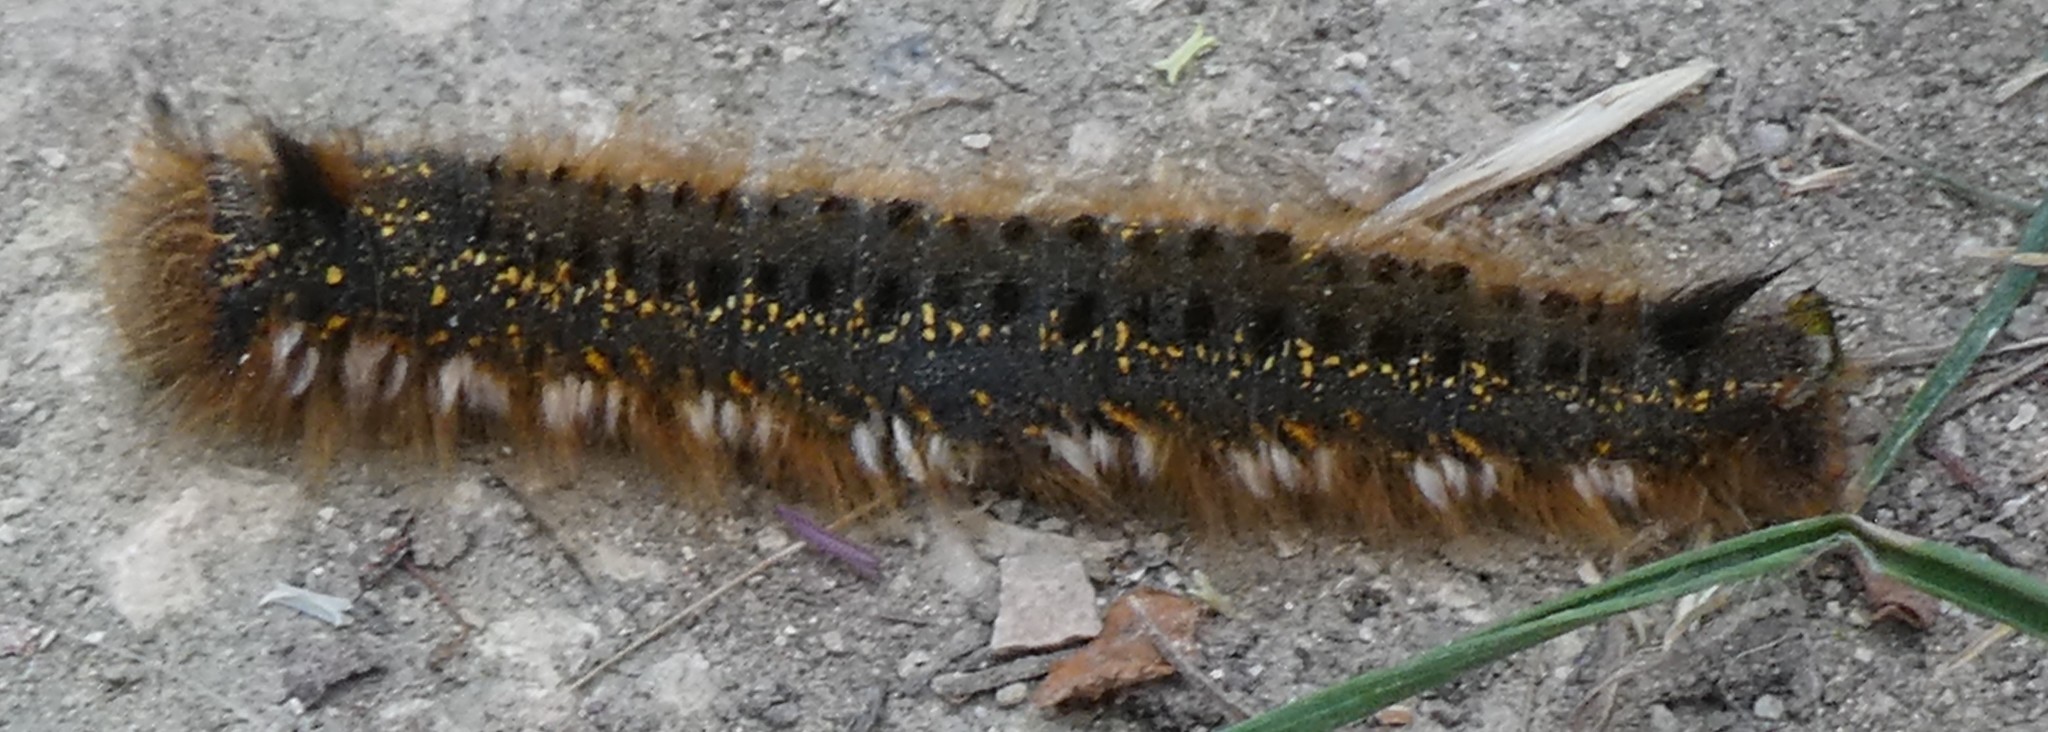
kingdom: Animalia
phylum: Arthropoda
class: Insecta
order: Lepidoptera
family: Lasiocampidae
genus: Euthrix
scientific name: Euthrix potatoria
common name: Drinker
